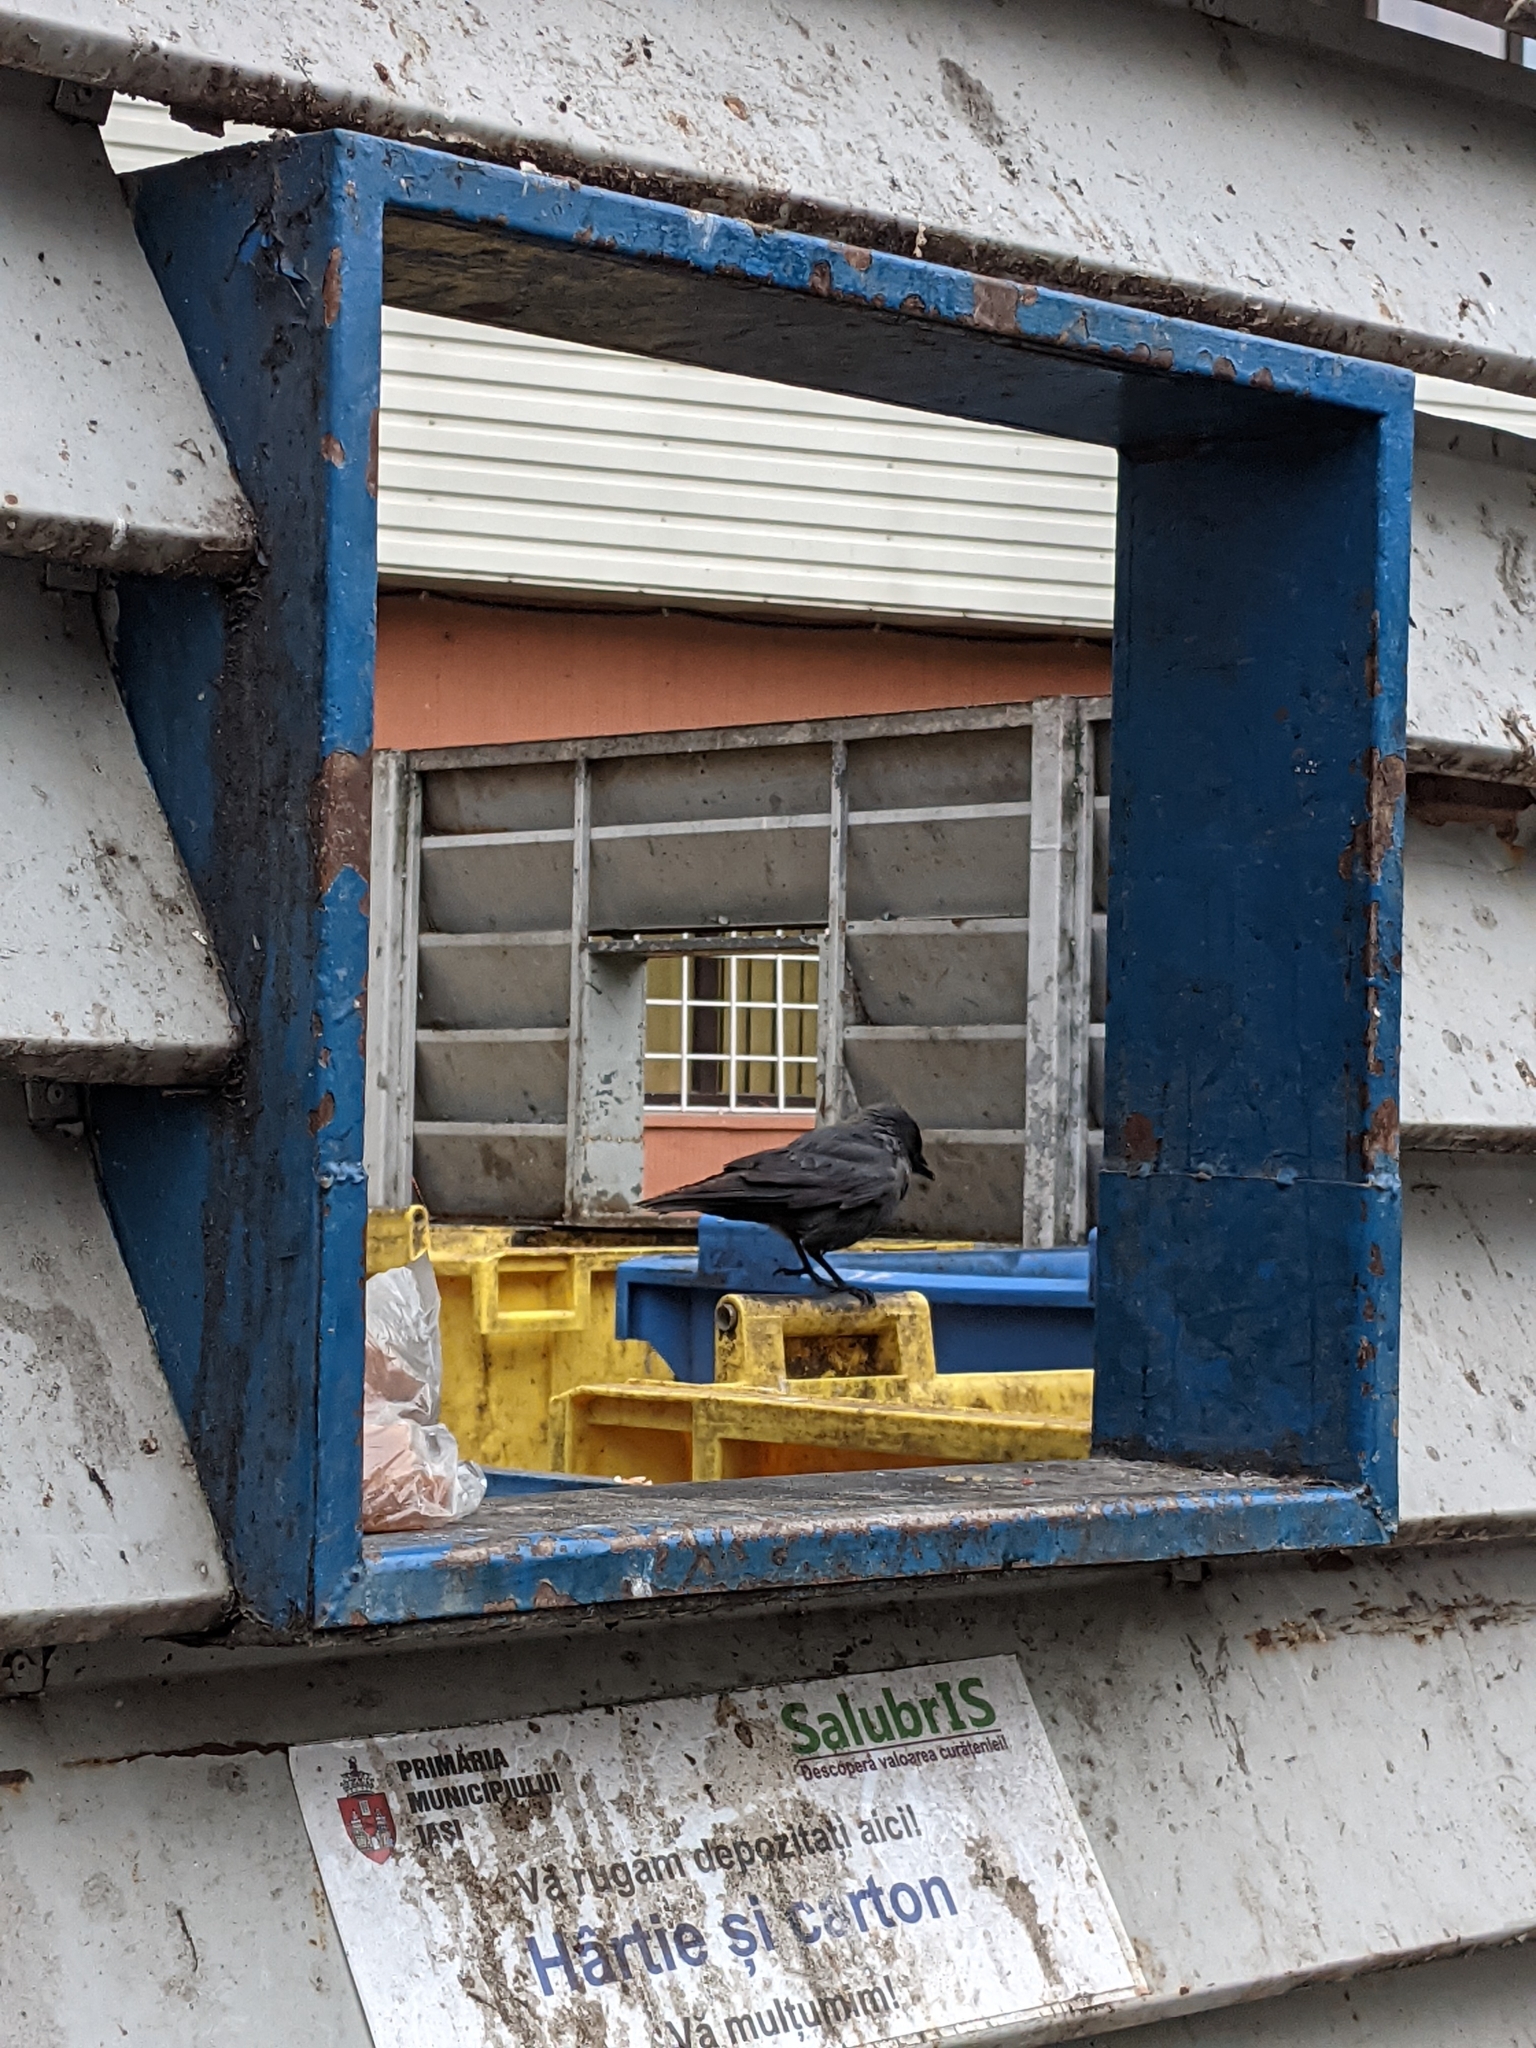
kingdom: Animalia
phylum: Chordata
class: Aves
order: Passeriformes
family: Corvidae
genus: Coloeus
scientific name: Coloeus monedula
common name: Western jackdaw
